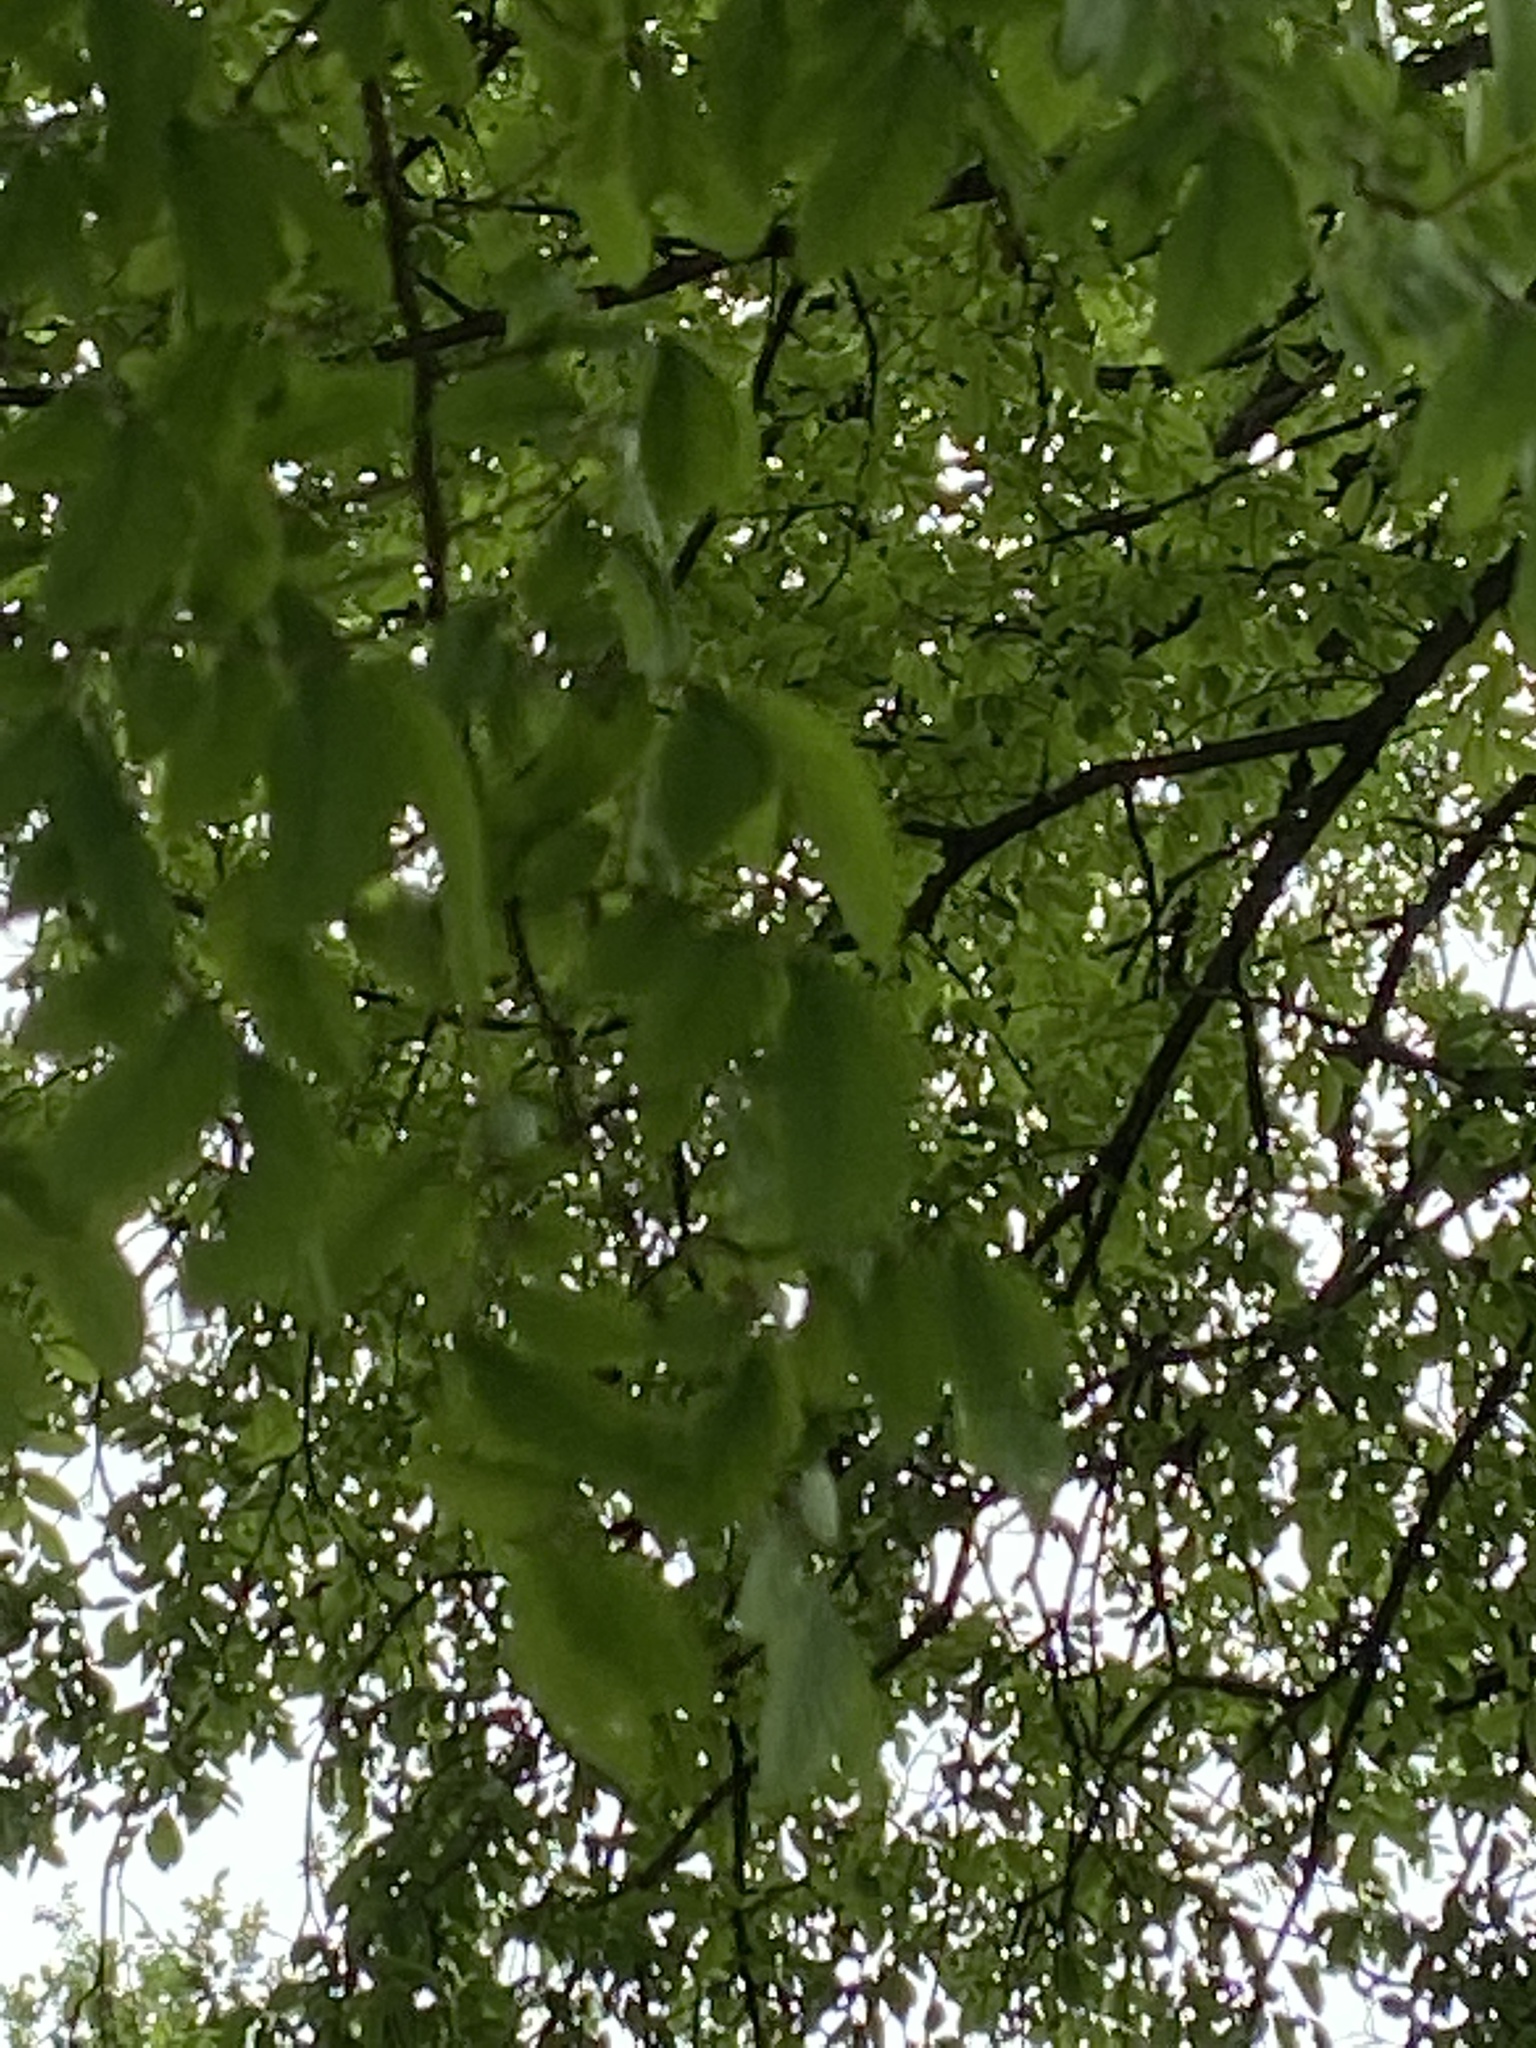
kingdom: Plantae
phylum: Tracheophyta
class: Magnoliopsida
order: Rosales
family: Ulmaceae
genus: Ulmus
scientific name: Ulmus crassifolia
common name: Basket elm
